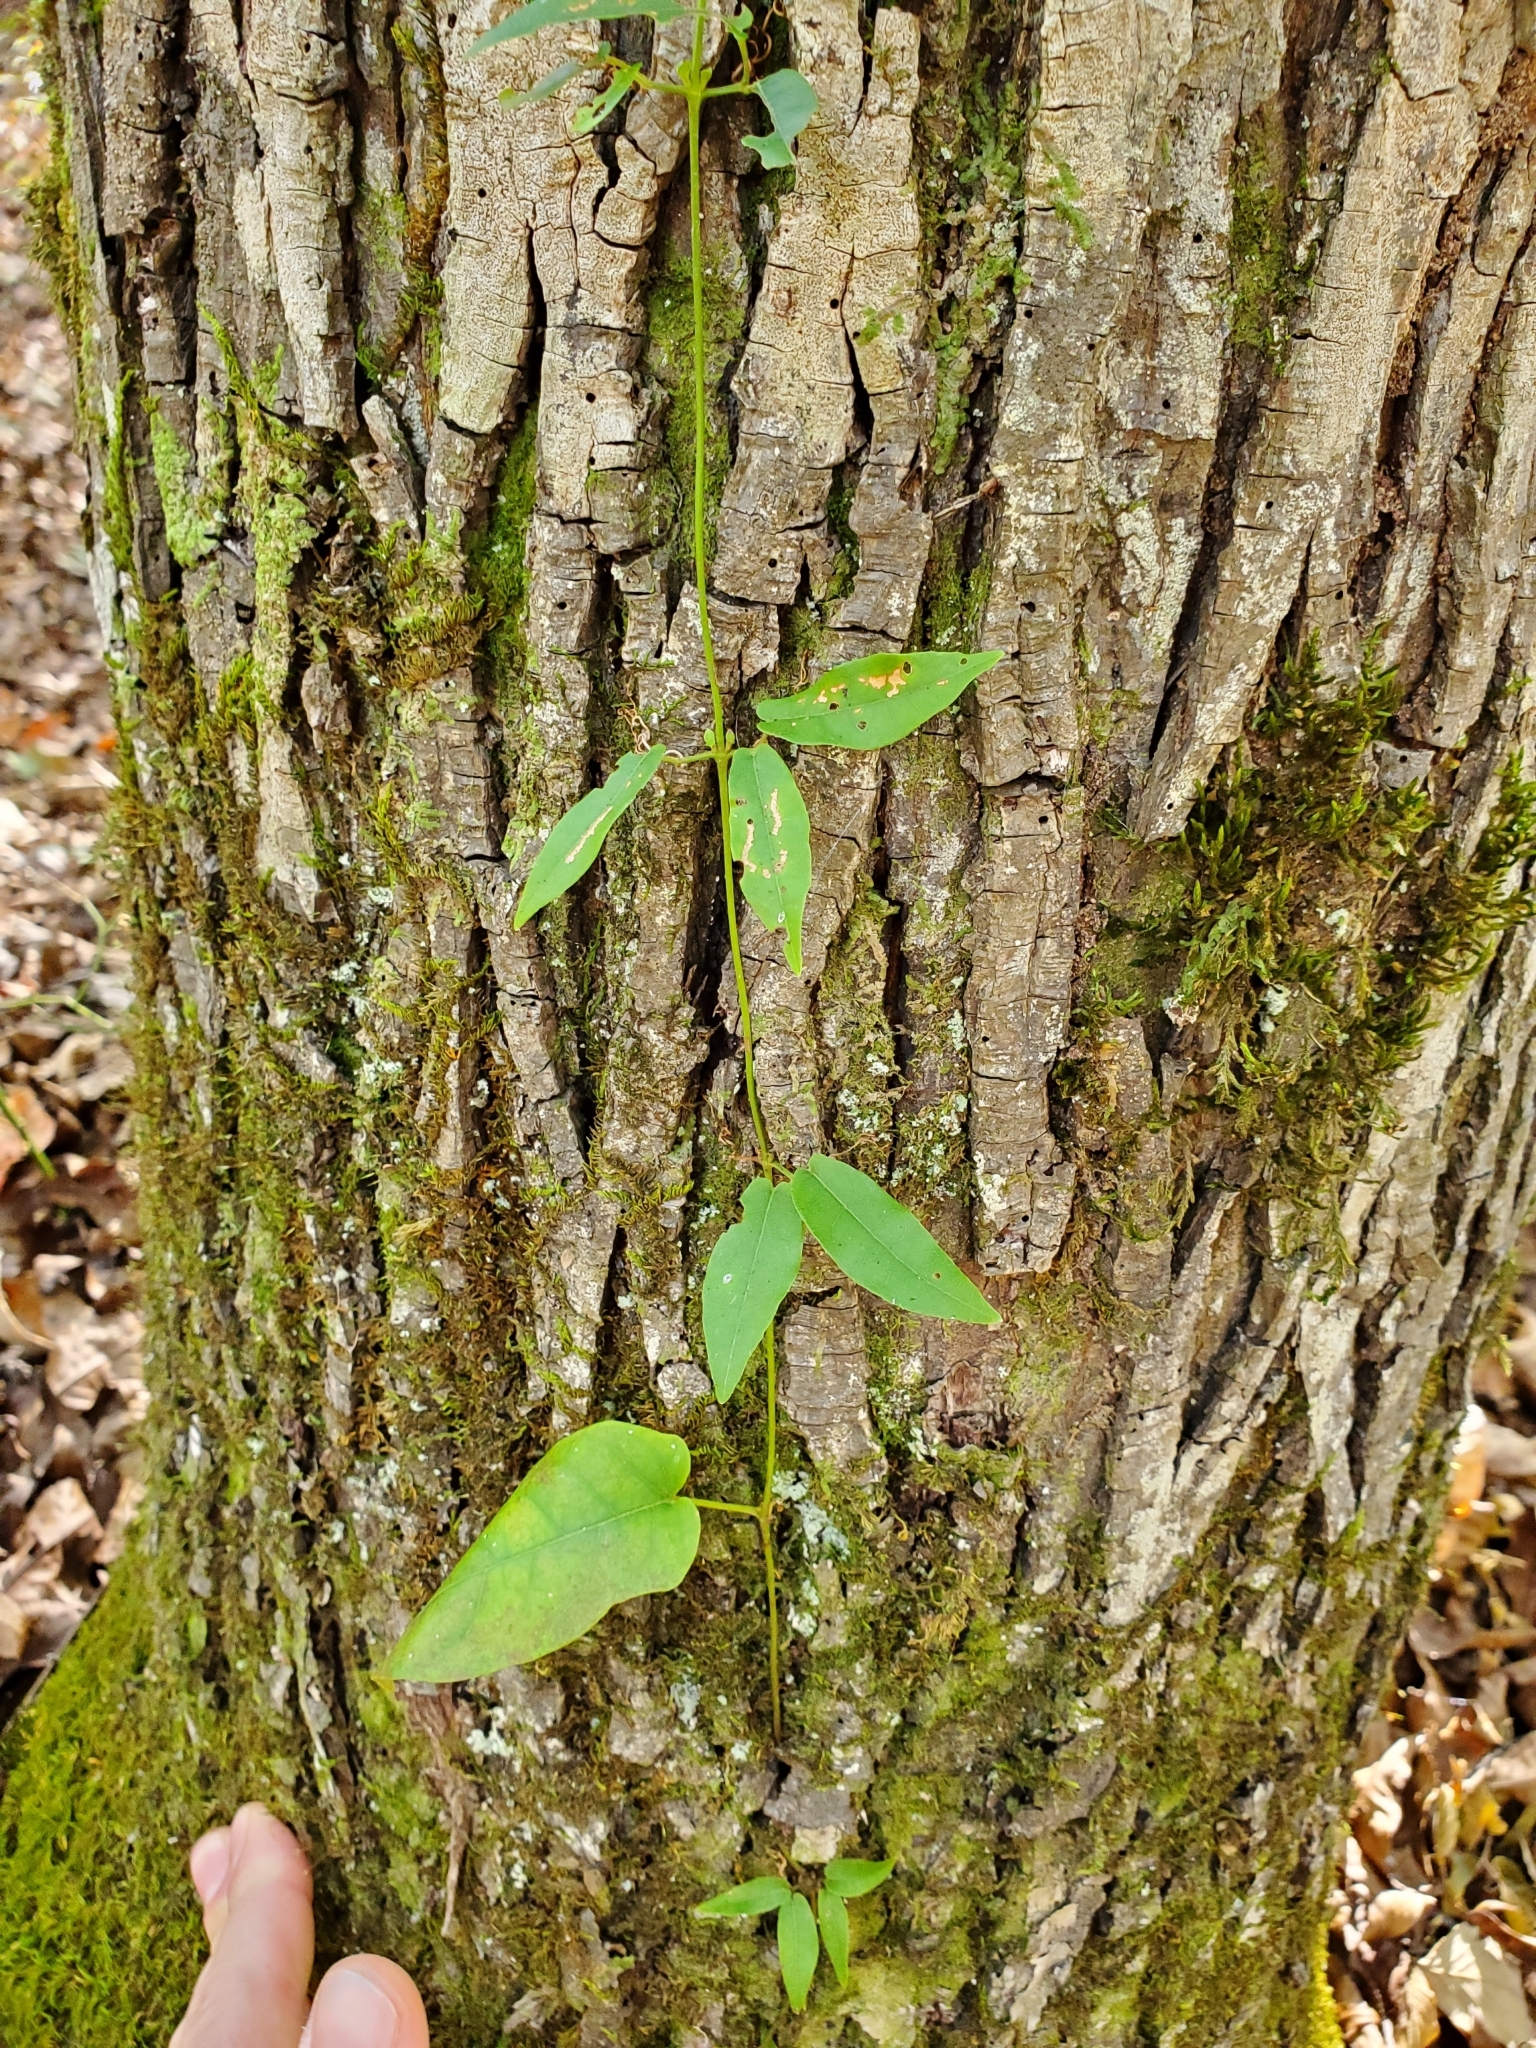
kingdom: Plantae
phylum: Tracheophyta
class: Magnoliopsida
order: Lamiales
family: Bignoniaceae
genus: Bignonia
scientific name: Bignonia capreolata
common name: Crossvine
